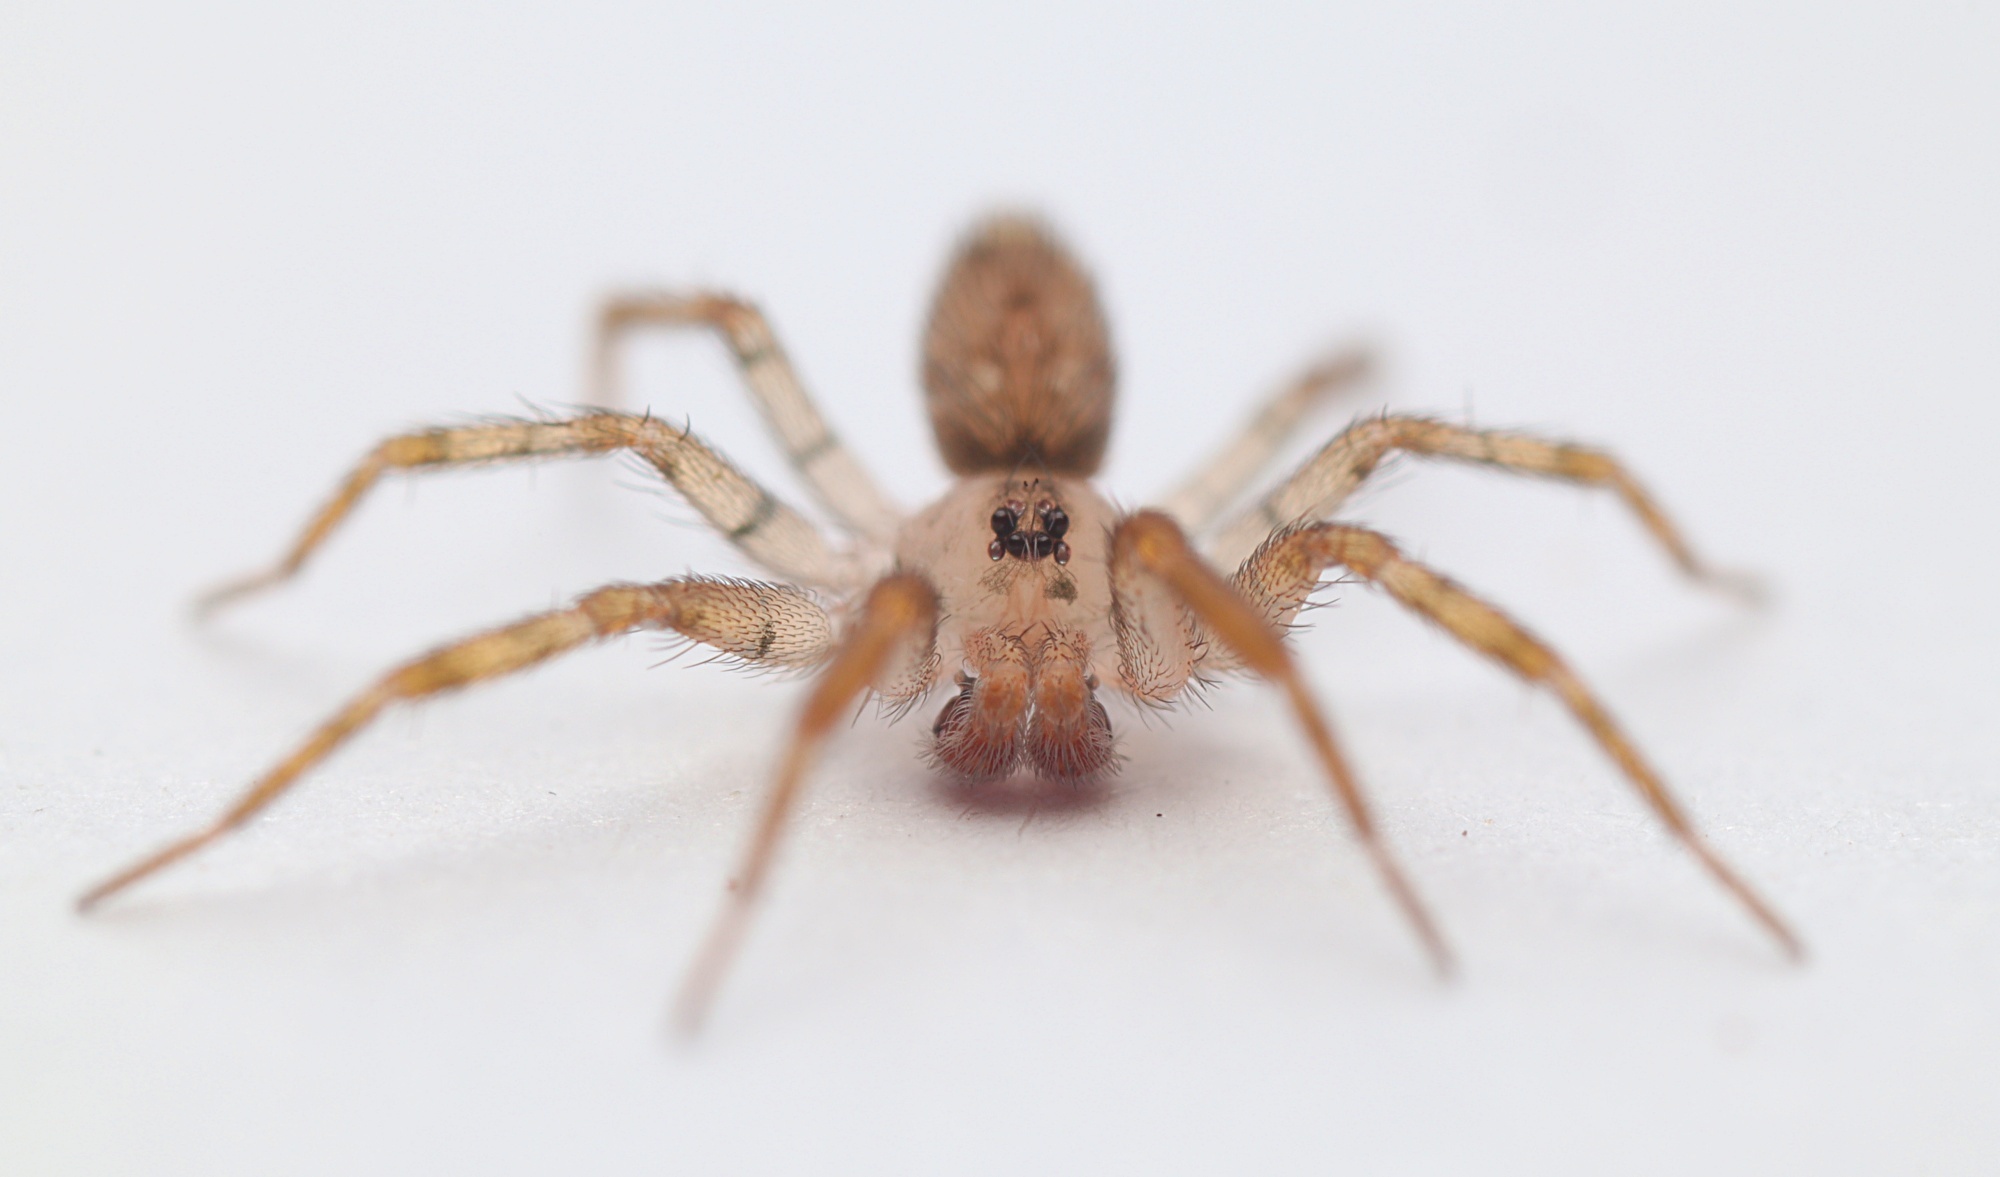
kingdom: Animalia
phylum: Arthropoda
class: Arachnida
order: Araneae
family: Oecobiidae
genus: Oecobius
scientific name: Oecobius navus
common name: Flatmesh weaver
